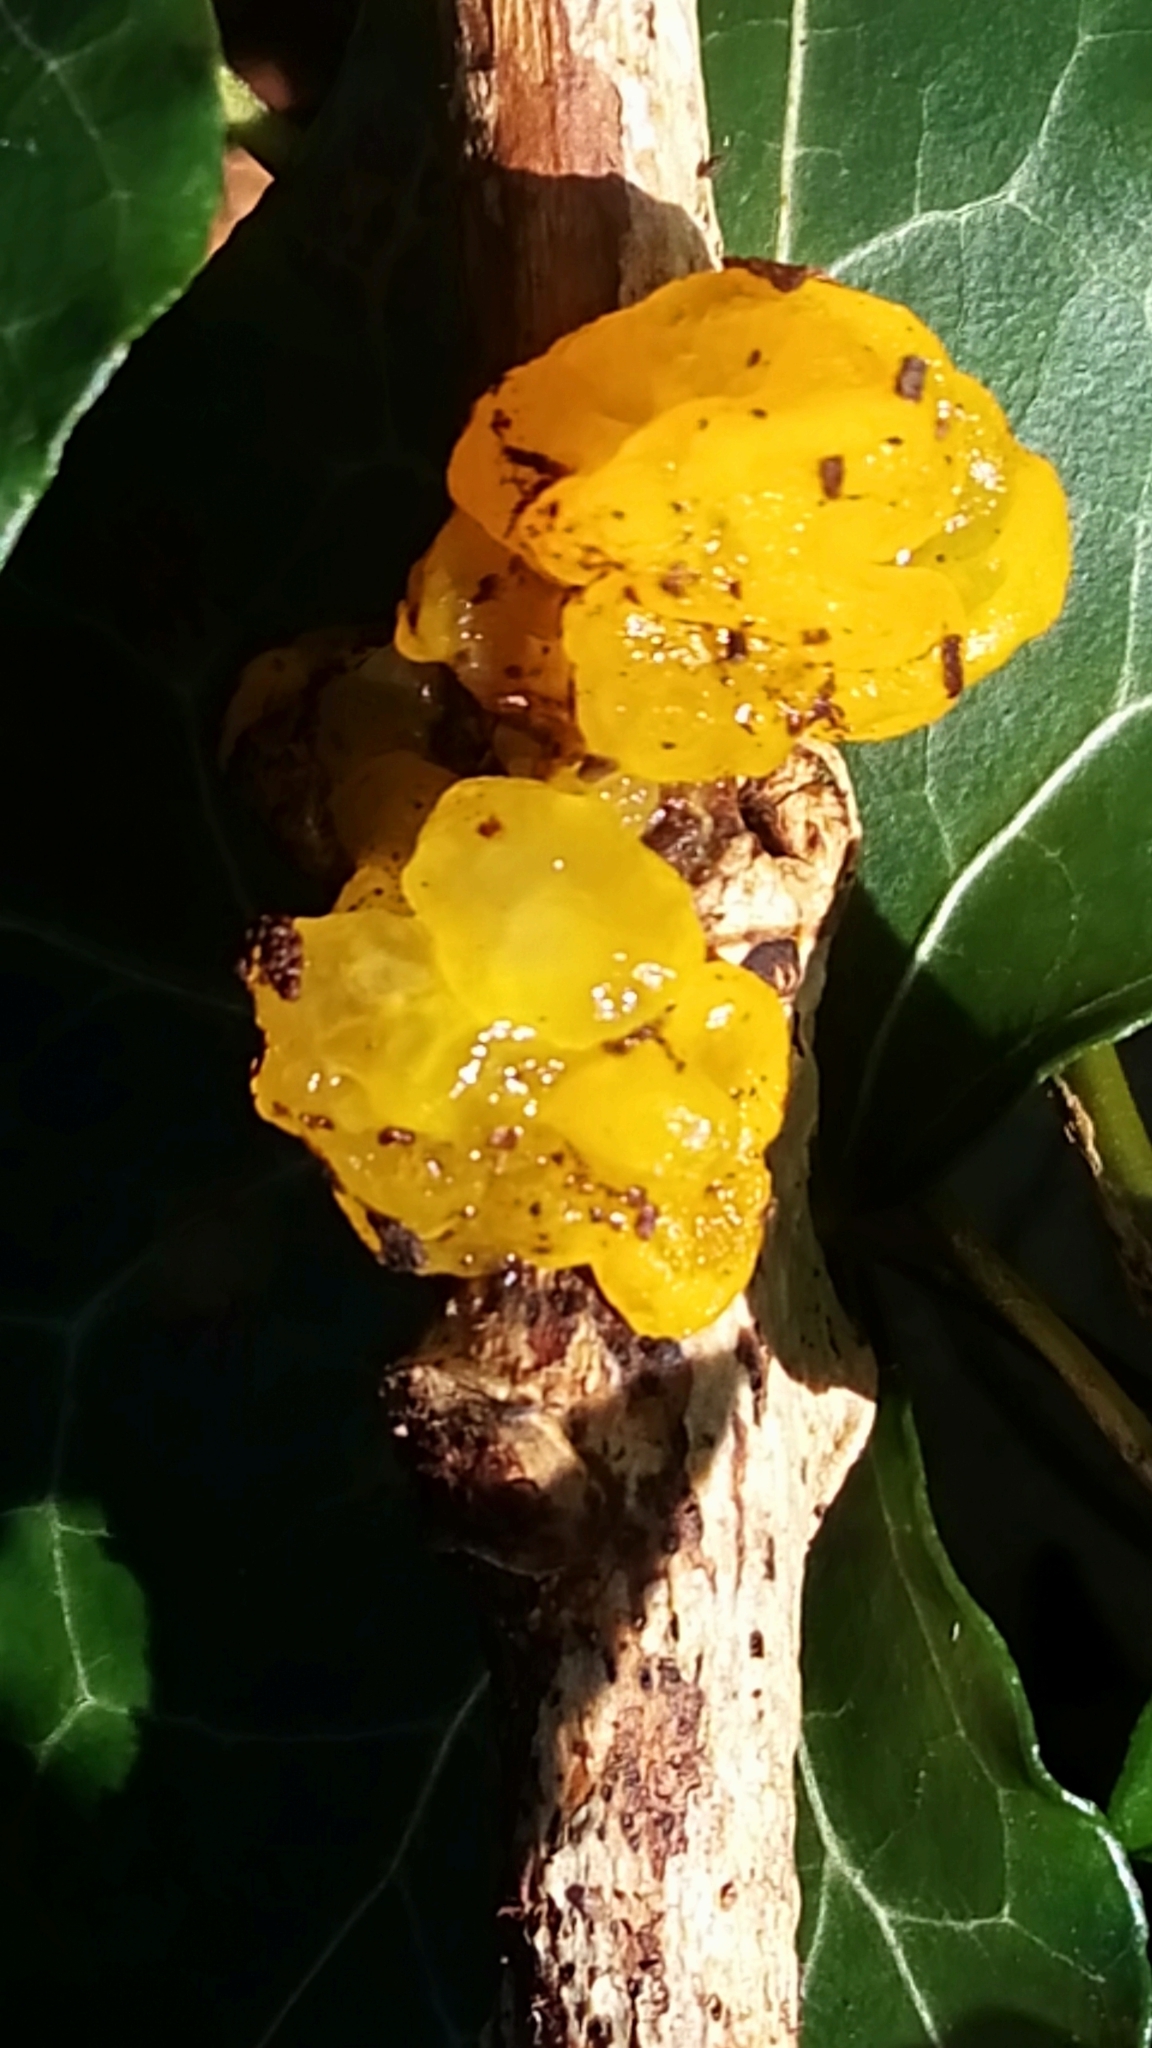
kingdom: Fungi
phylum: Basidiomycota
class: Tremellomycetes
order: Tremellales
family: Tremellaceae
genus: Tremella
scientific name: Tremella mesenterica
